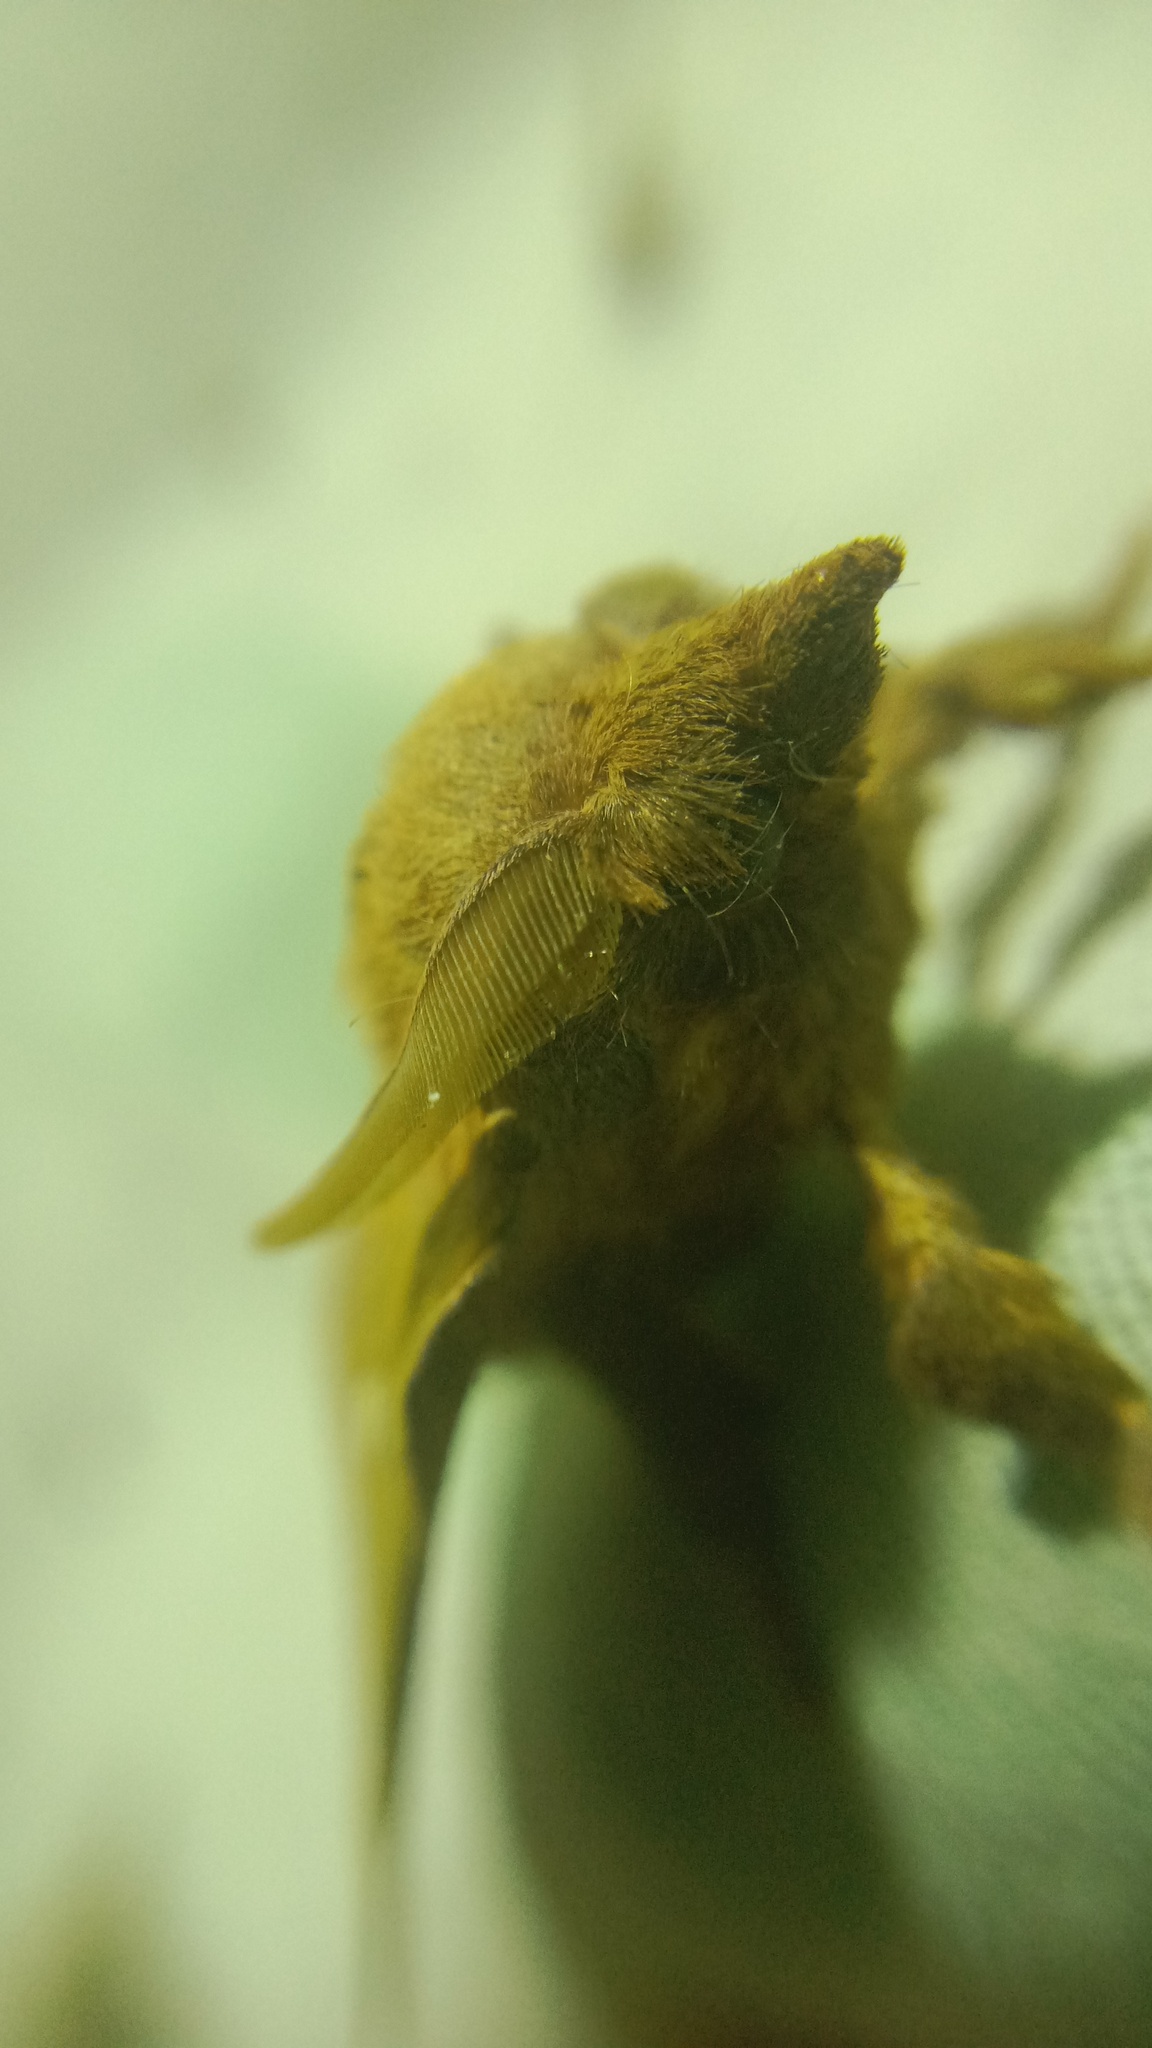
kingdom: Animalia
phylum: Arthropoda
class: Insecta
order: Lepidoptera
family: Lasiocampidae
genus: Odonestis
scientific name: Odonestis pruni
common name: Plum lappet
